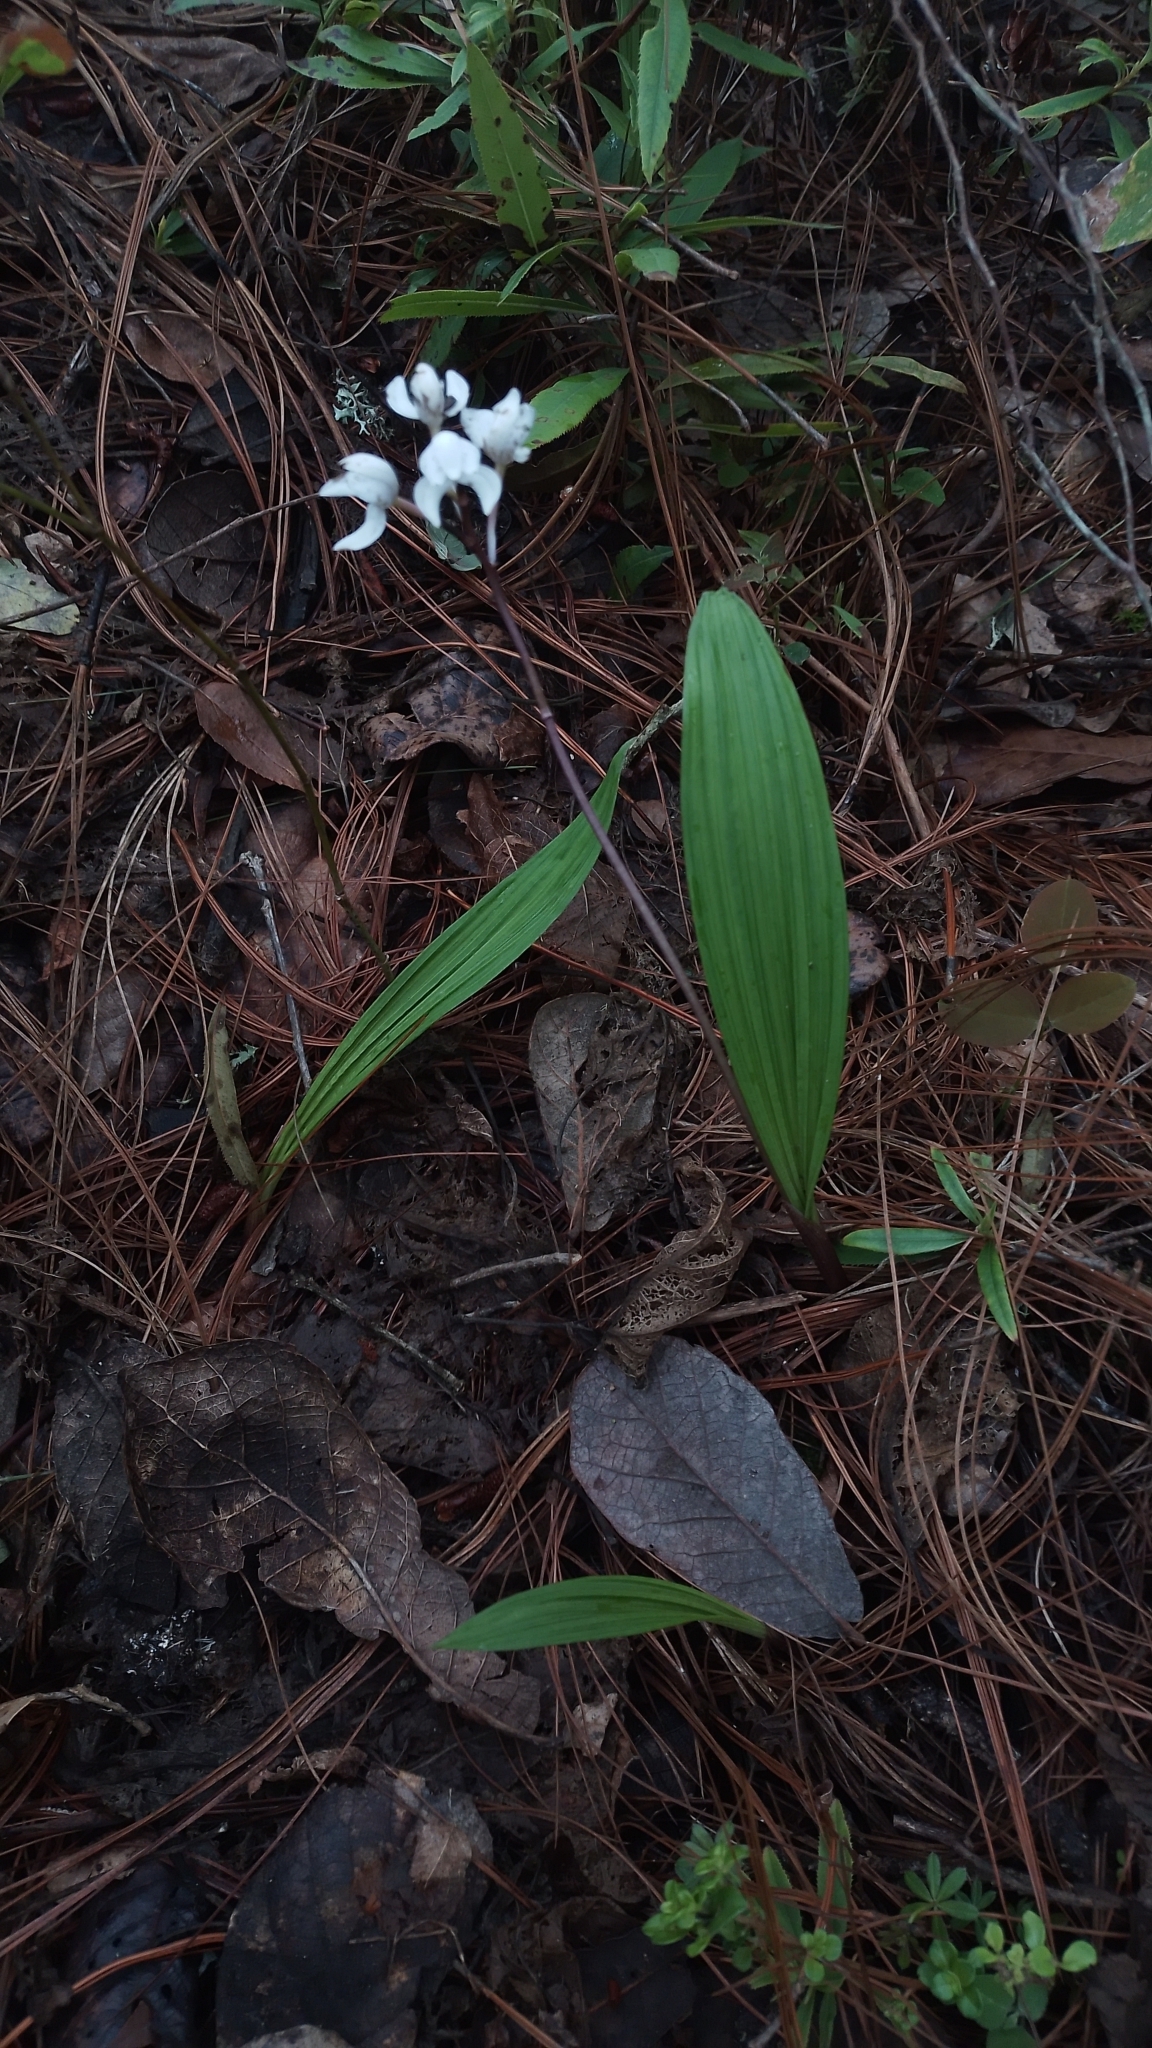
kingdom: Plantae
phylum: Tracheophyta
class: Liliopsida
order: Asparagales
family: Orchidaceae
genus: Govenia
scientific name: Govenia purpusii
